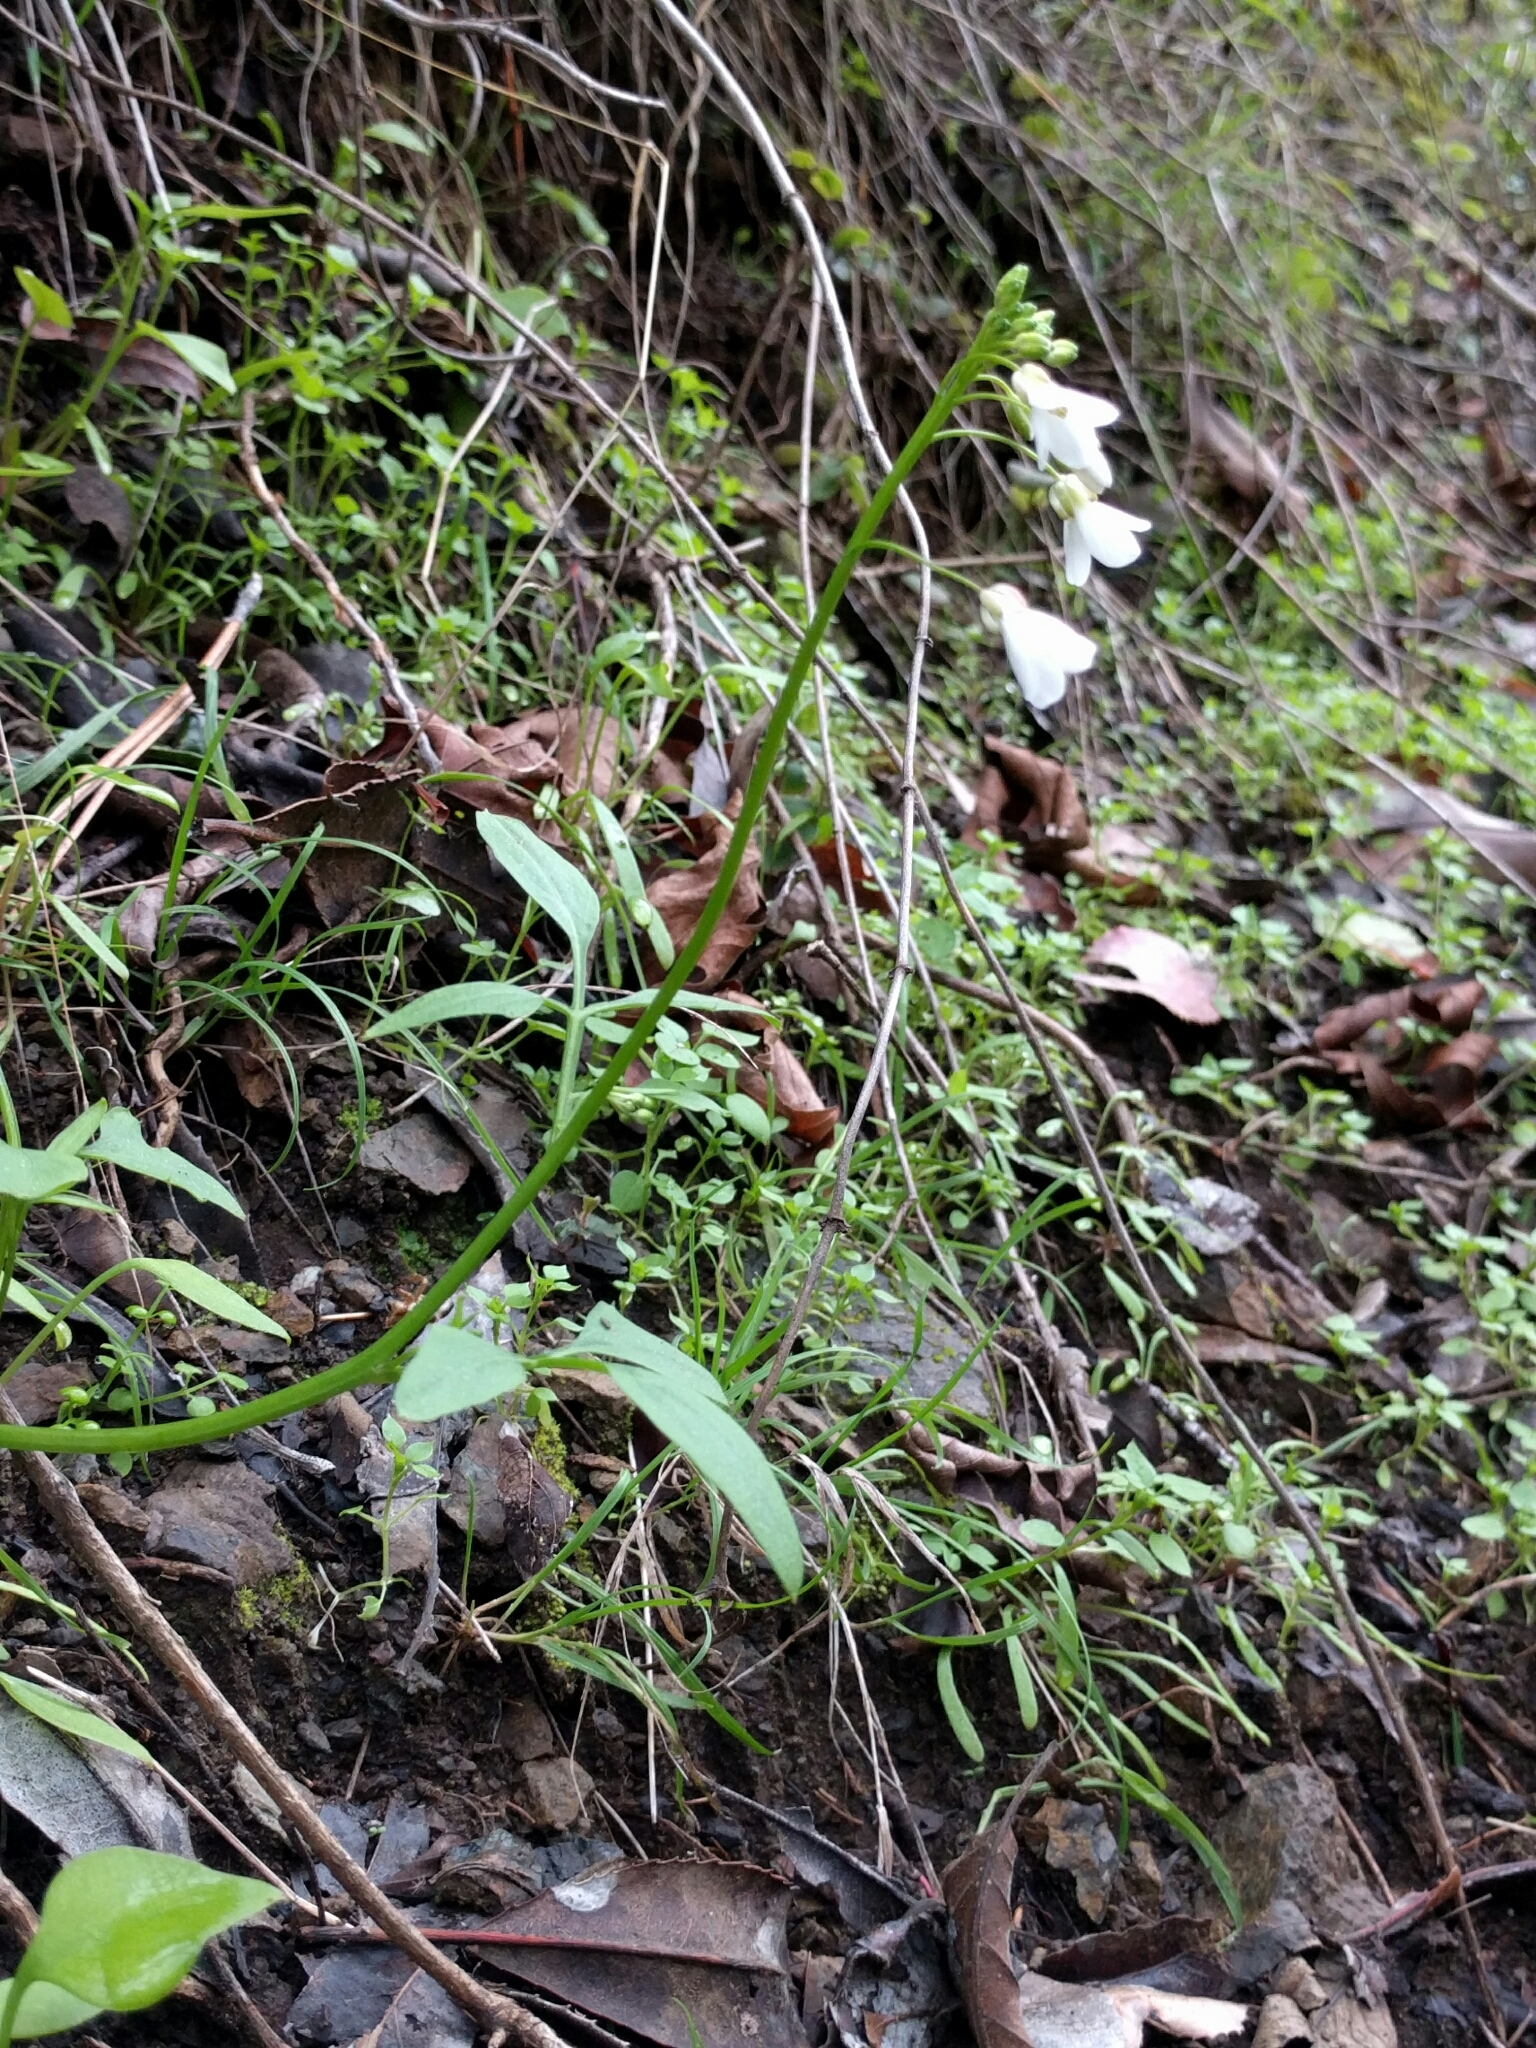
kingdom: Plantae
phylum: Tracheophyta
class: Magnoliopsida
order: Brassicales
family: Brassicaceae
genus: Cardamine
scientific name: Cardamine californica
